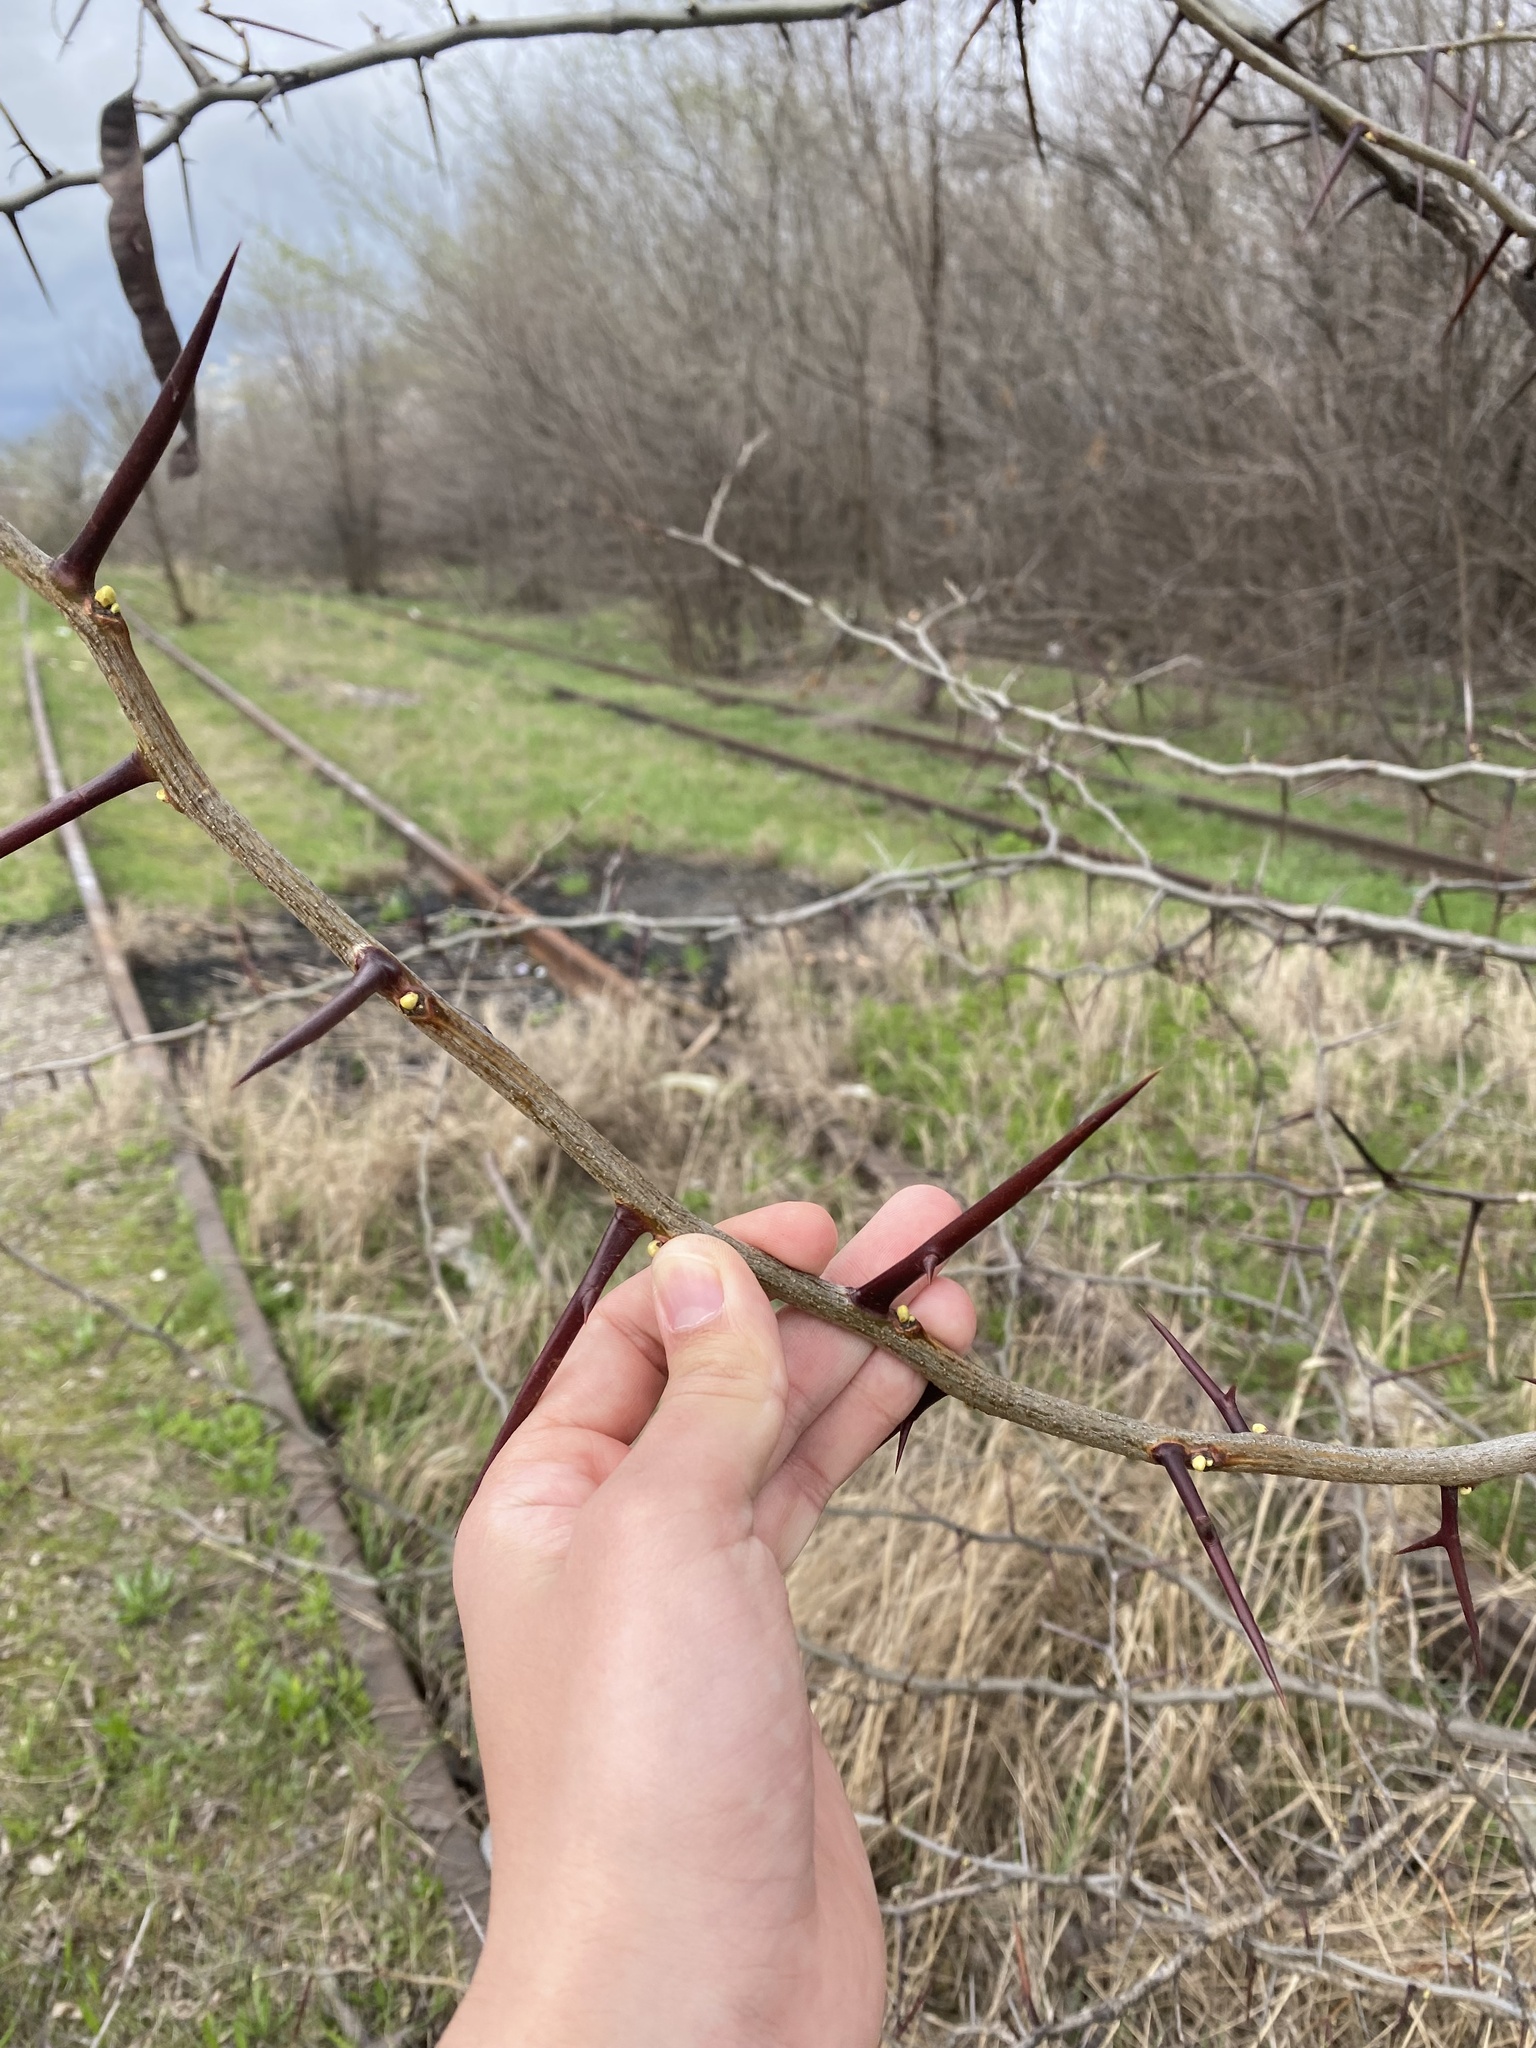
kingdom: Plantae
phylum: Tracheophyta
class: Magnoliopsida
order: Fabales
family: Fabaceae
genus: Gleditsia
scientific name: Gleditsia triacanthos
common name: Common honeylocust
